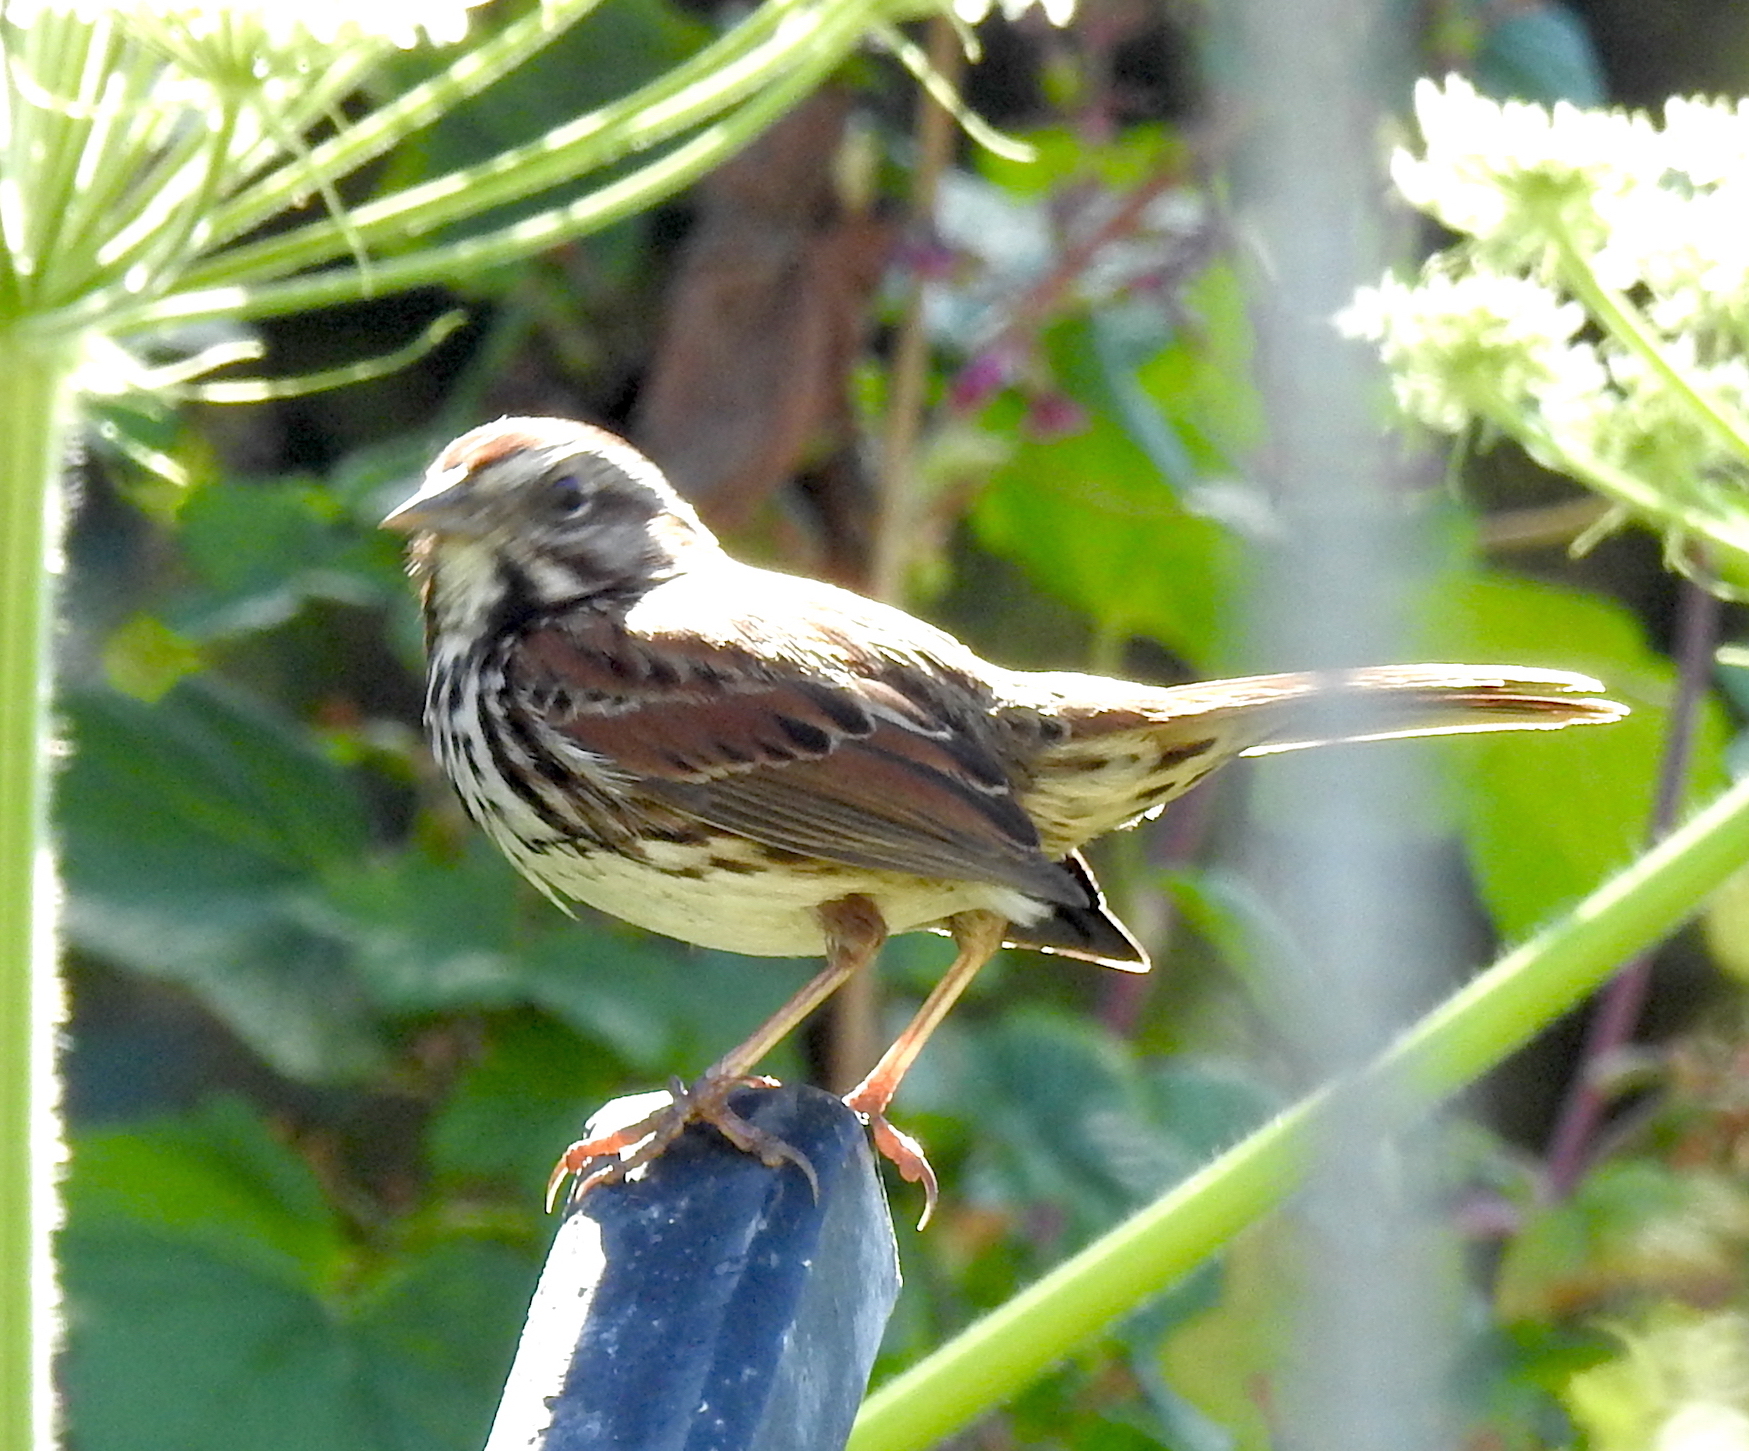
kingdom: Animalia
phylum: Chordata
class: Aves
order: Passeriformes
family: Passerellidae
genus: Melospiza
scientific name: Melospiza melodia
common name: Song sparrow
